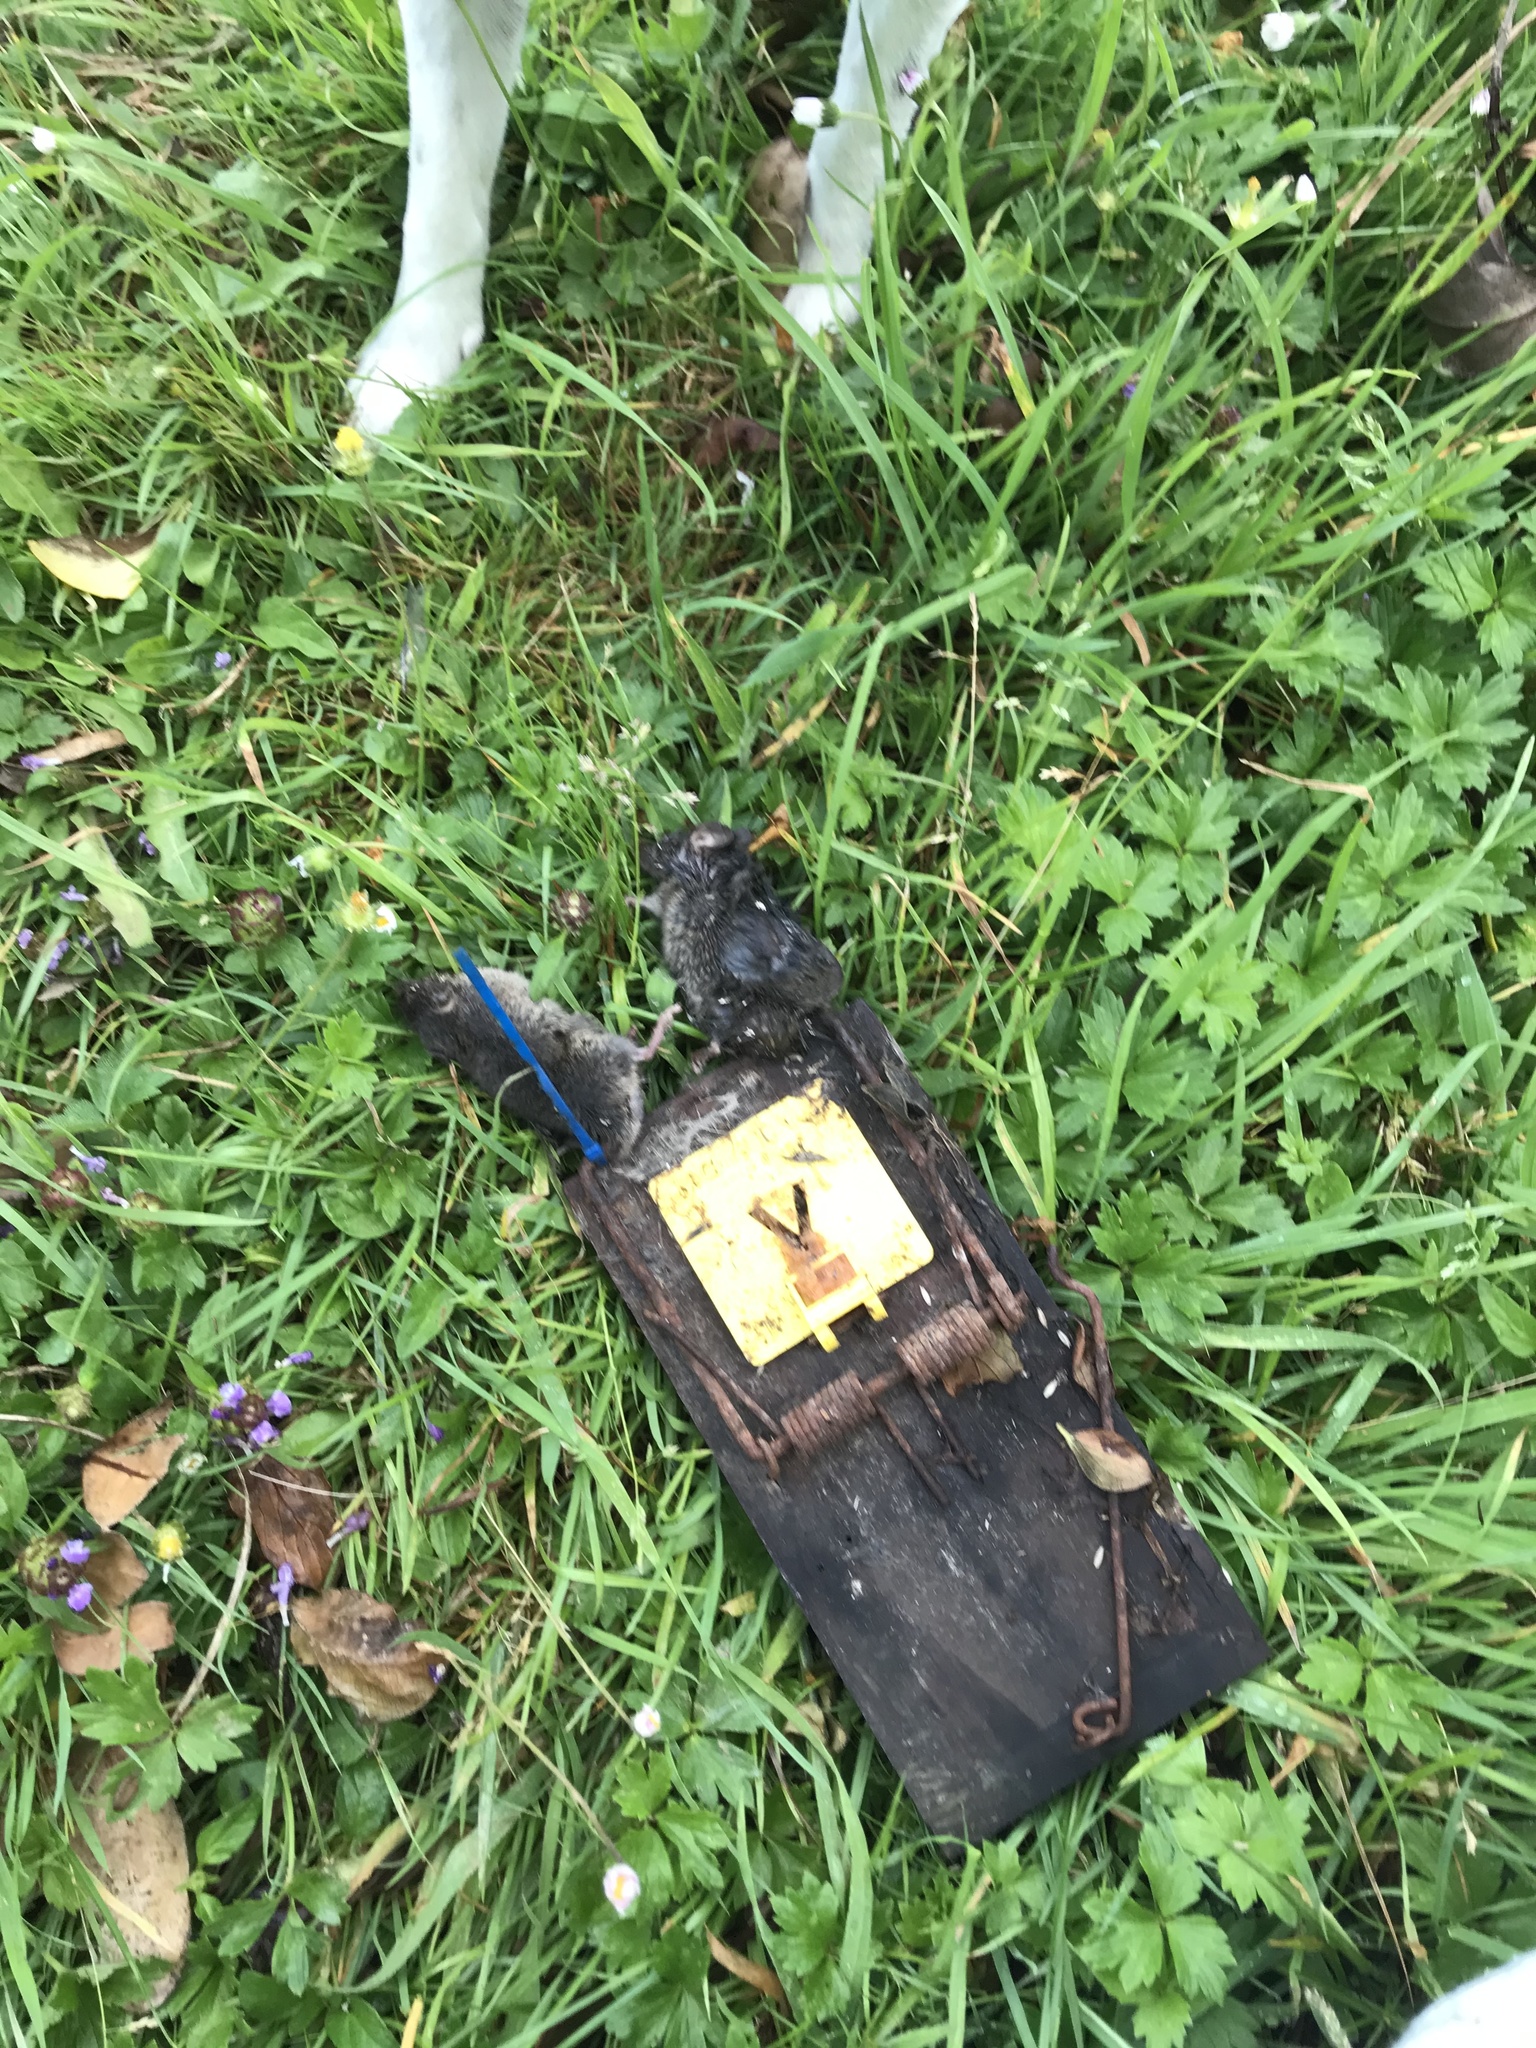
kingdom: Animalia
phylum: Chordata
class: Mammalia
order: Rodentia
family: Muridae
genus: Mus
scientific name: Mus musculus
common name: House mouse
